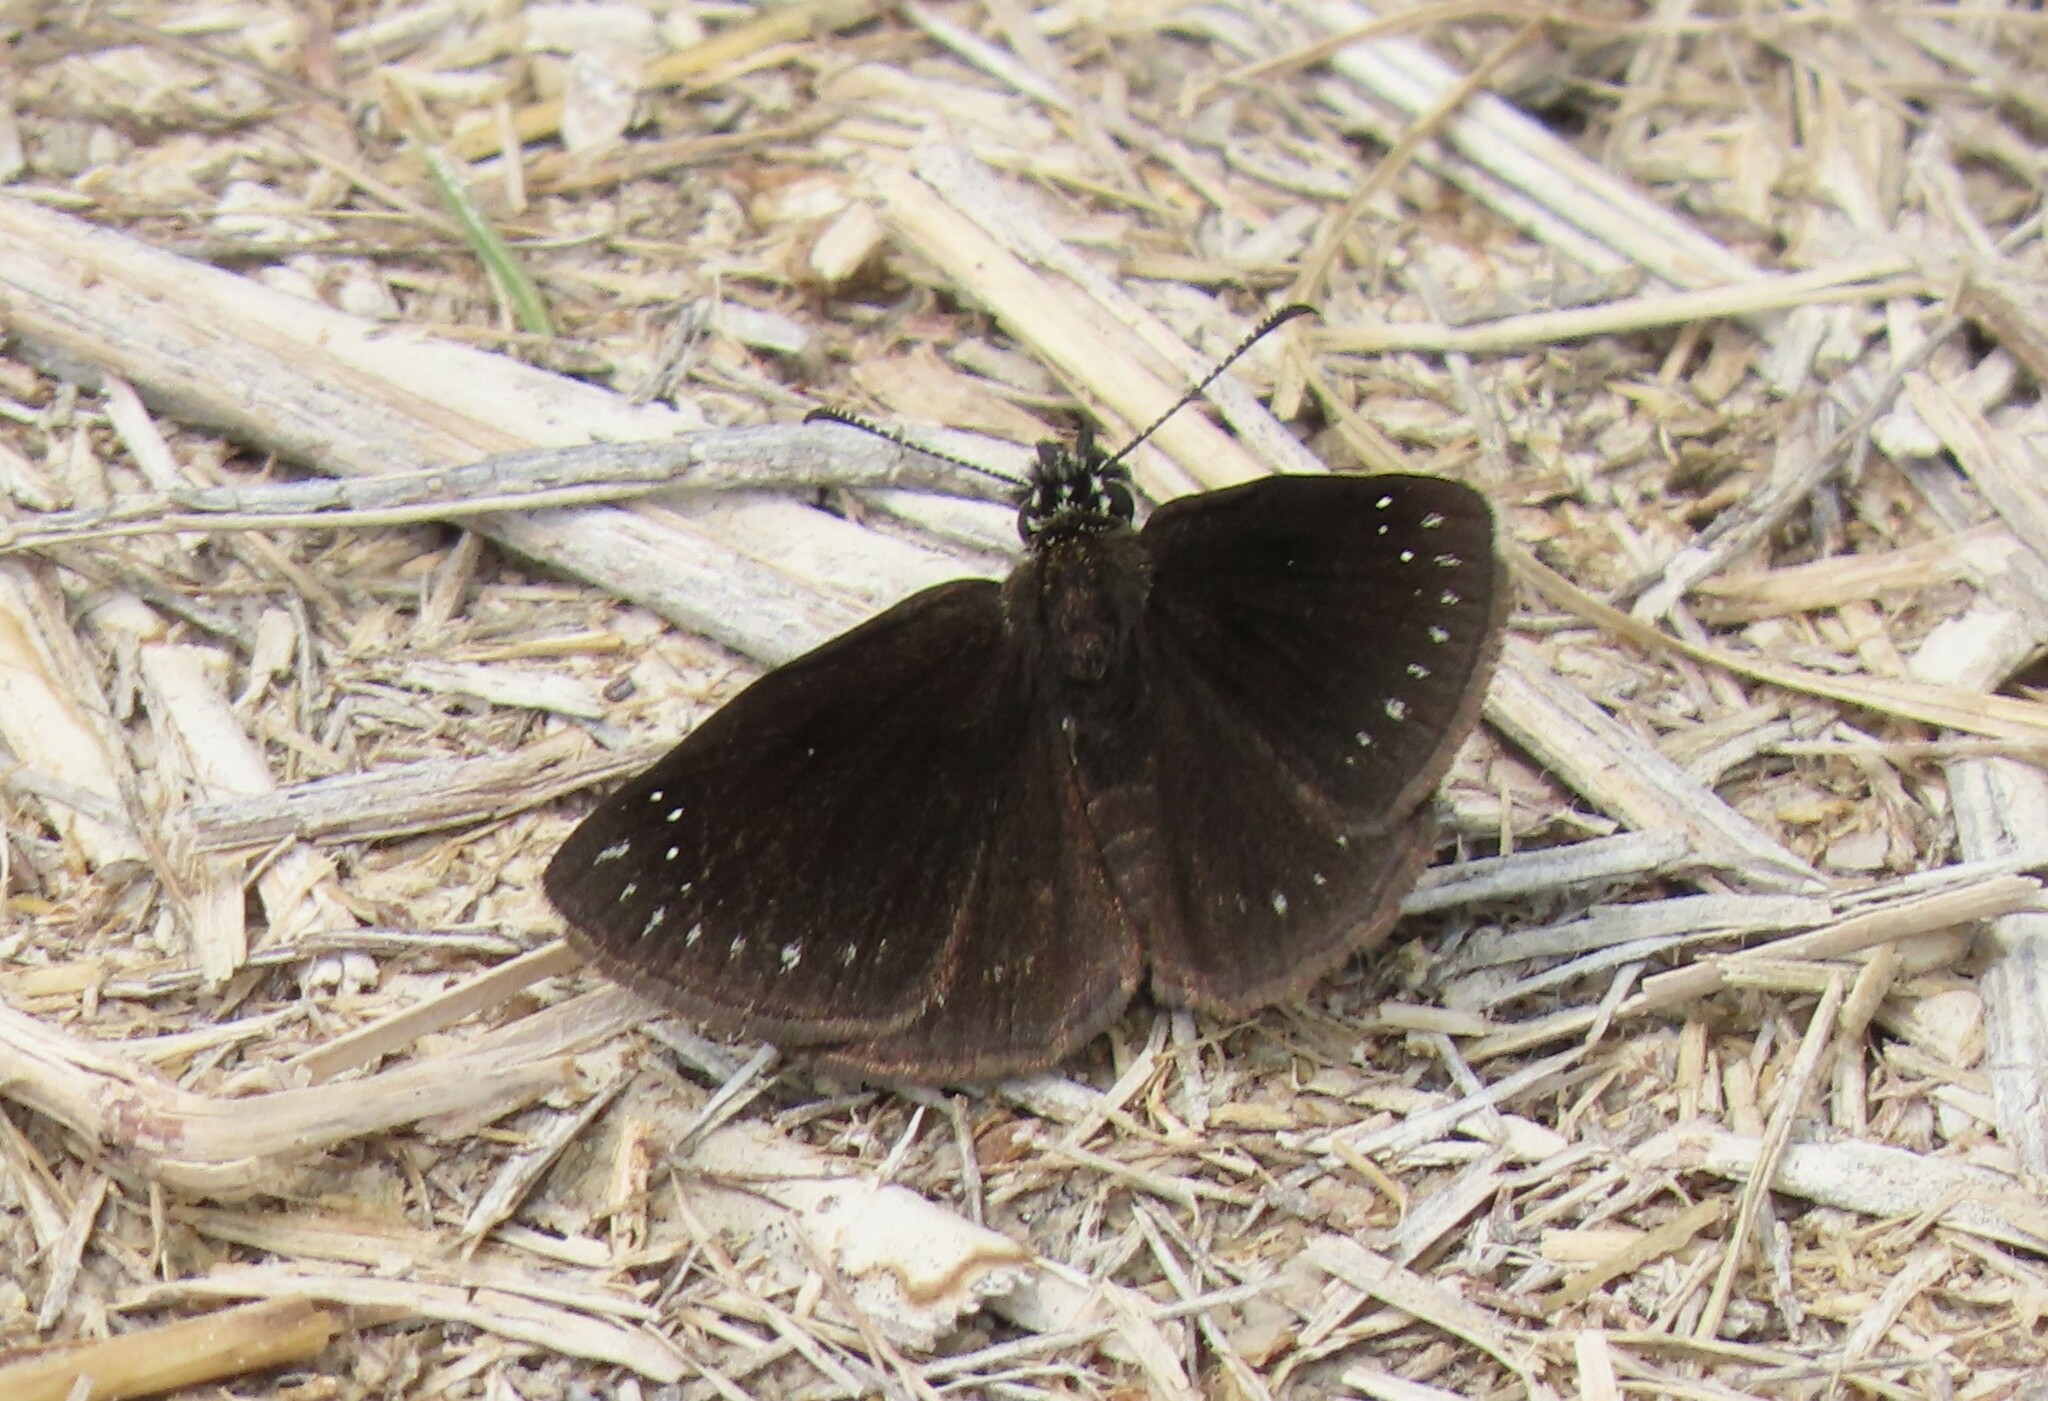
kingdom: Animalia
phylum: Arthropoda
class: Insecta
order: Lepidoptera
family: Hesperiidae
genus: Pholisora
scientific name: Pholisora catullus
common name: Common sootywing
